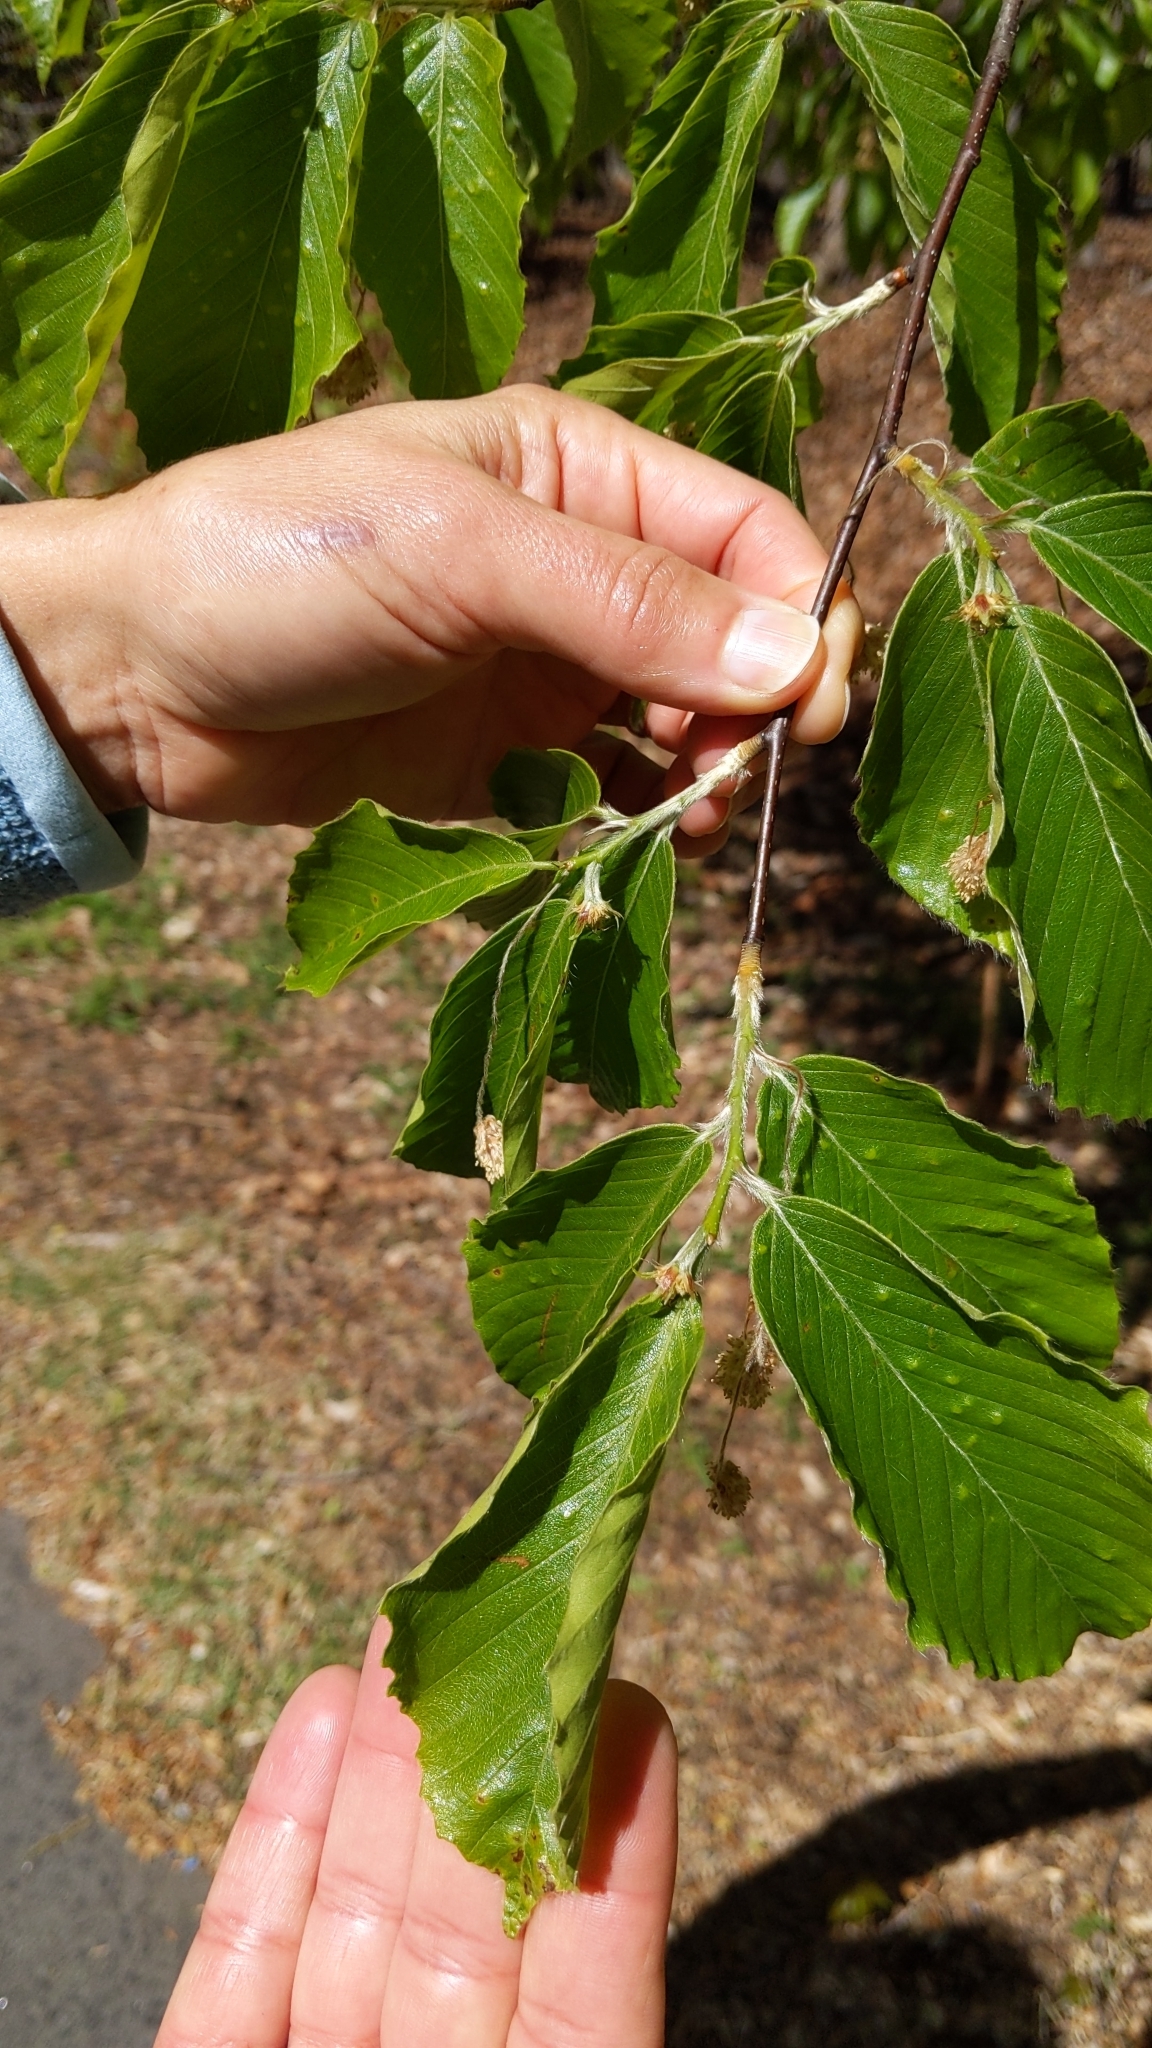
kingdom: Plantae
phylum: Tracheophyta
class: Magnoliopsida
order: Fagales
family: Fagaceae
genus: Fagus
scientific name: Fagus grandifolia
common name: American beech
